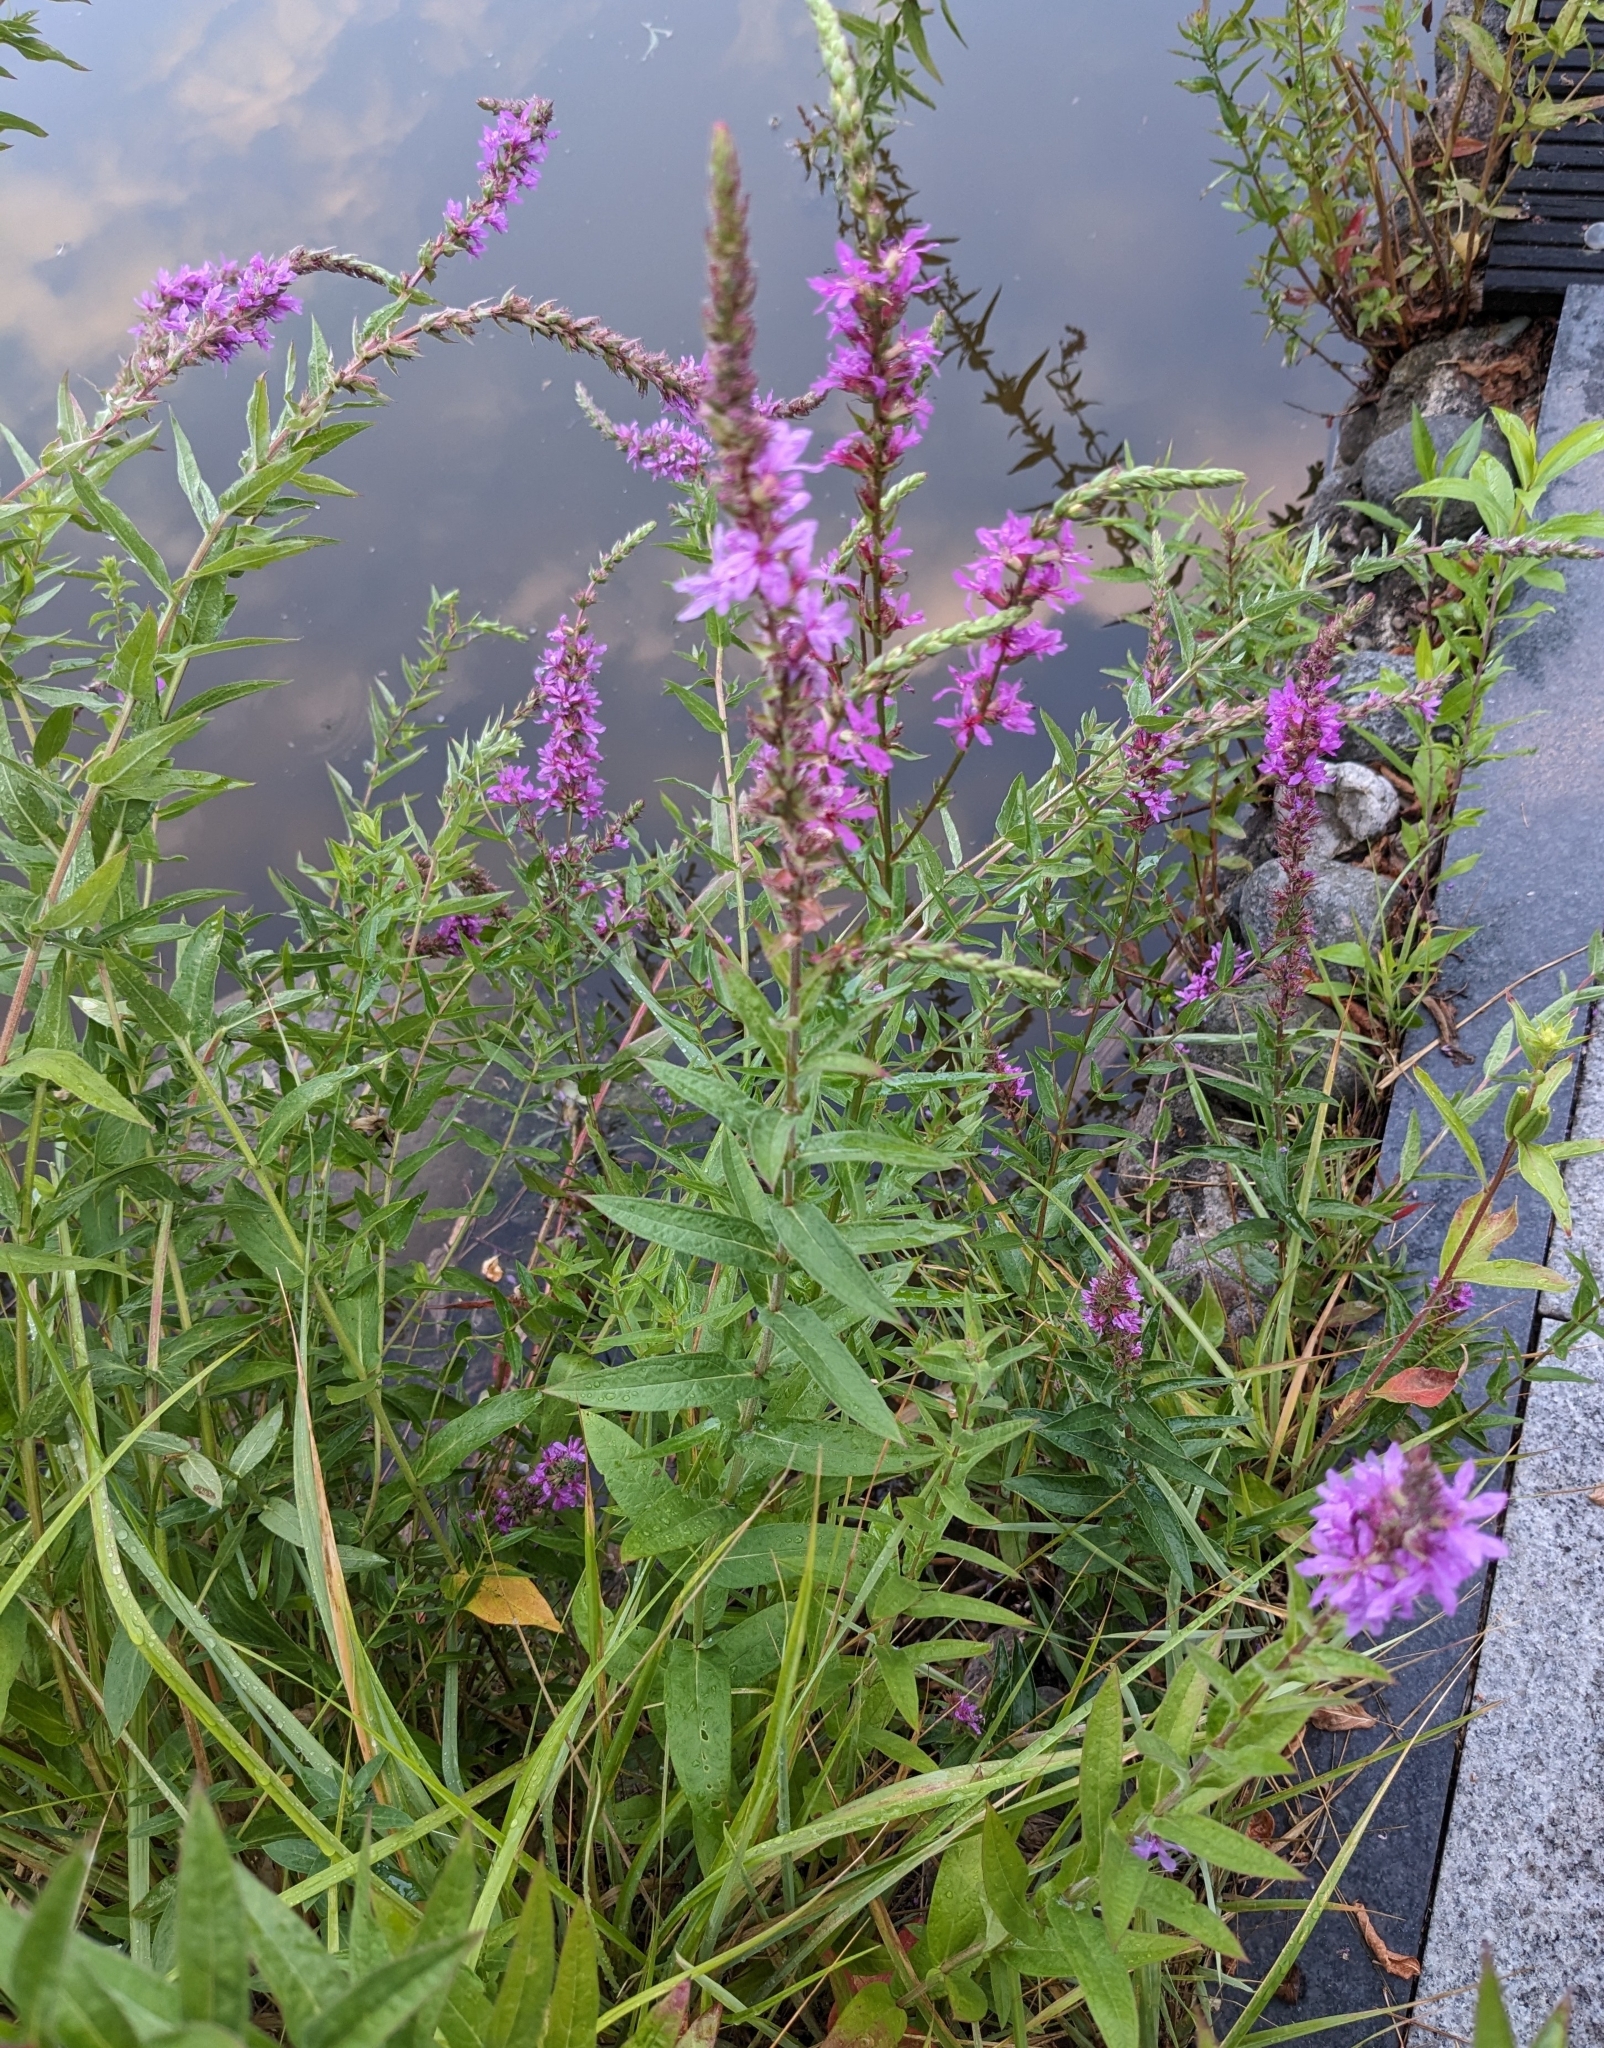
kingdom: Plantae
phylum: Tracheophyta
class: Magnoliopsida
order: Myrtales
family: Lythraceae
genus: Lythrum
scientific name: Lythrum salicaria
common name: Purple loosestrife
